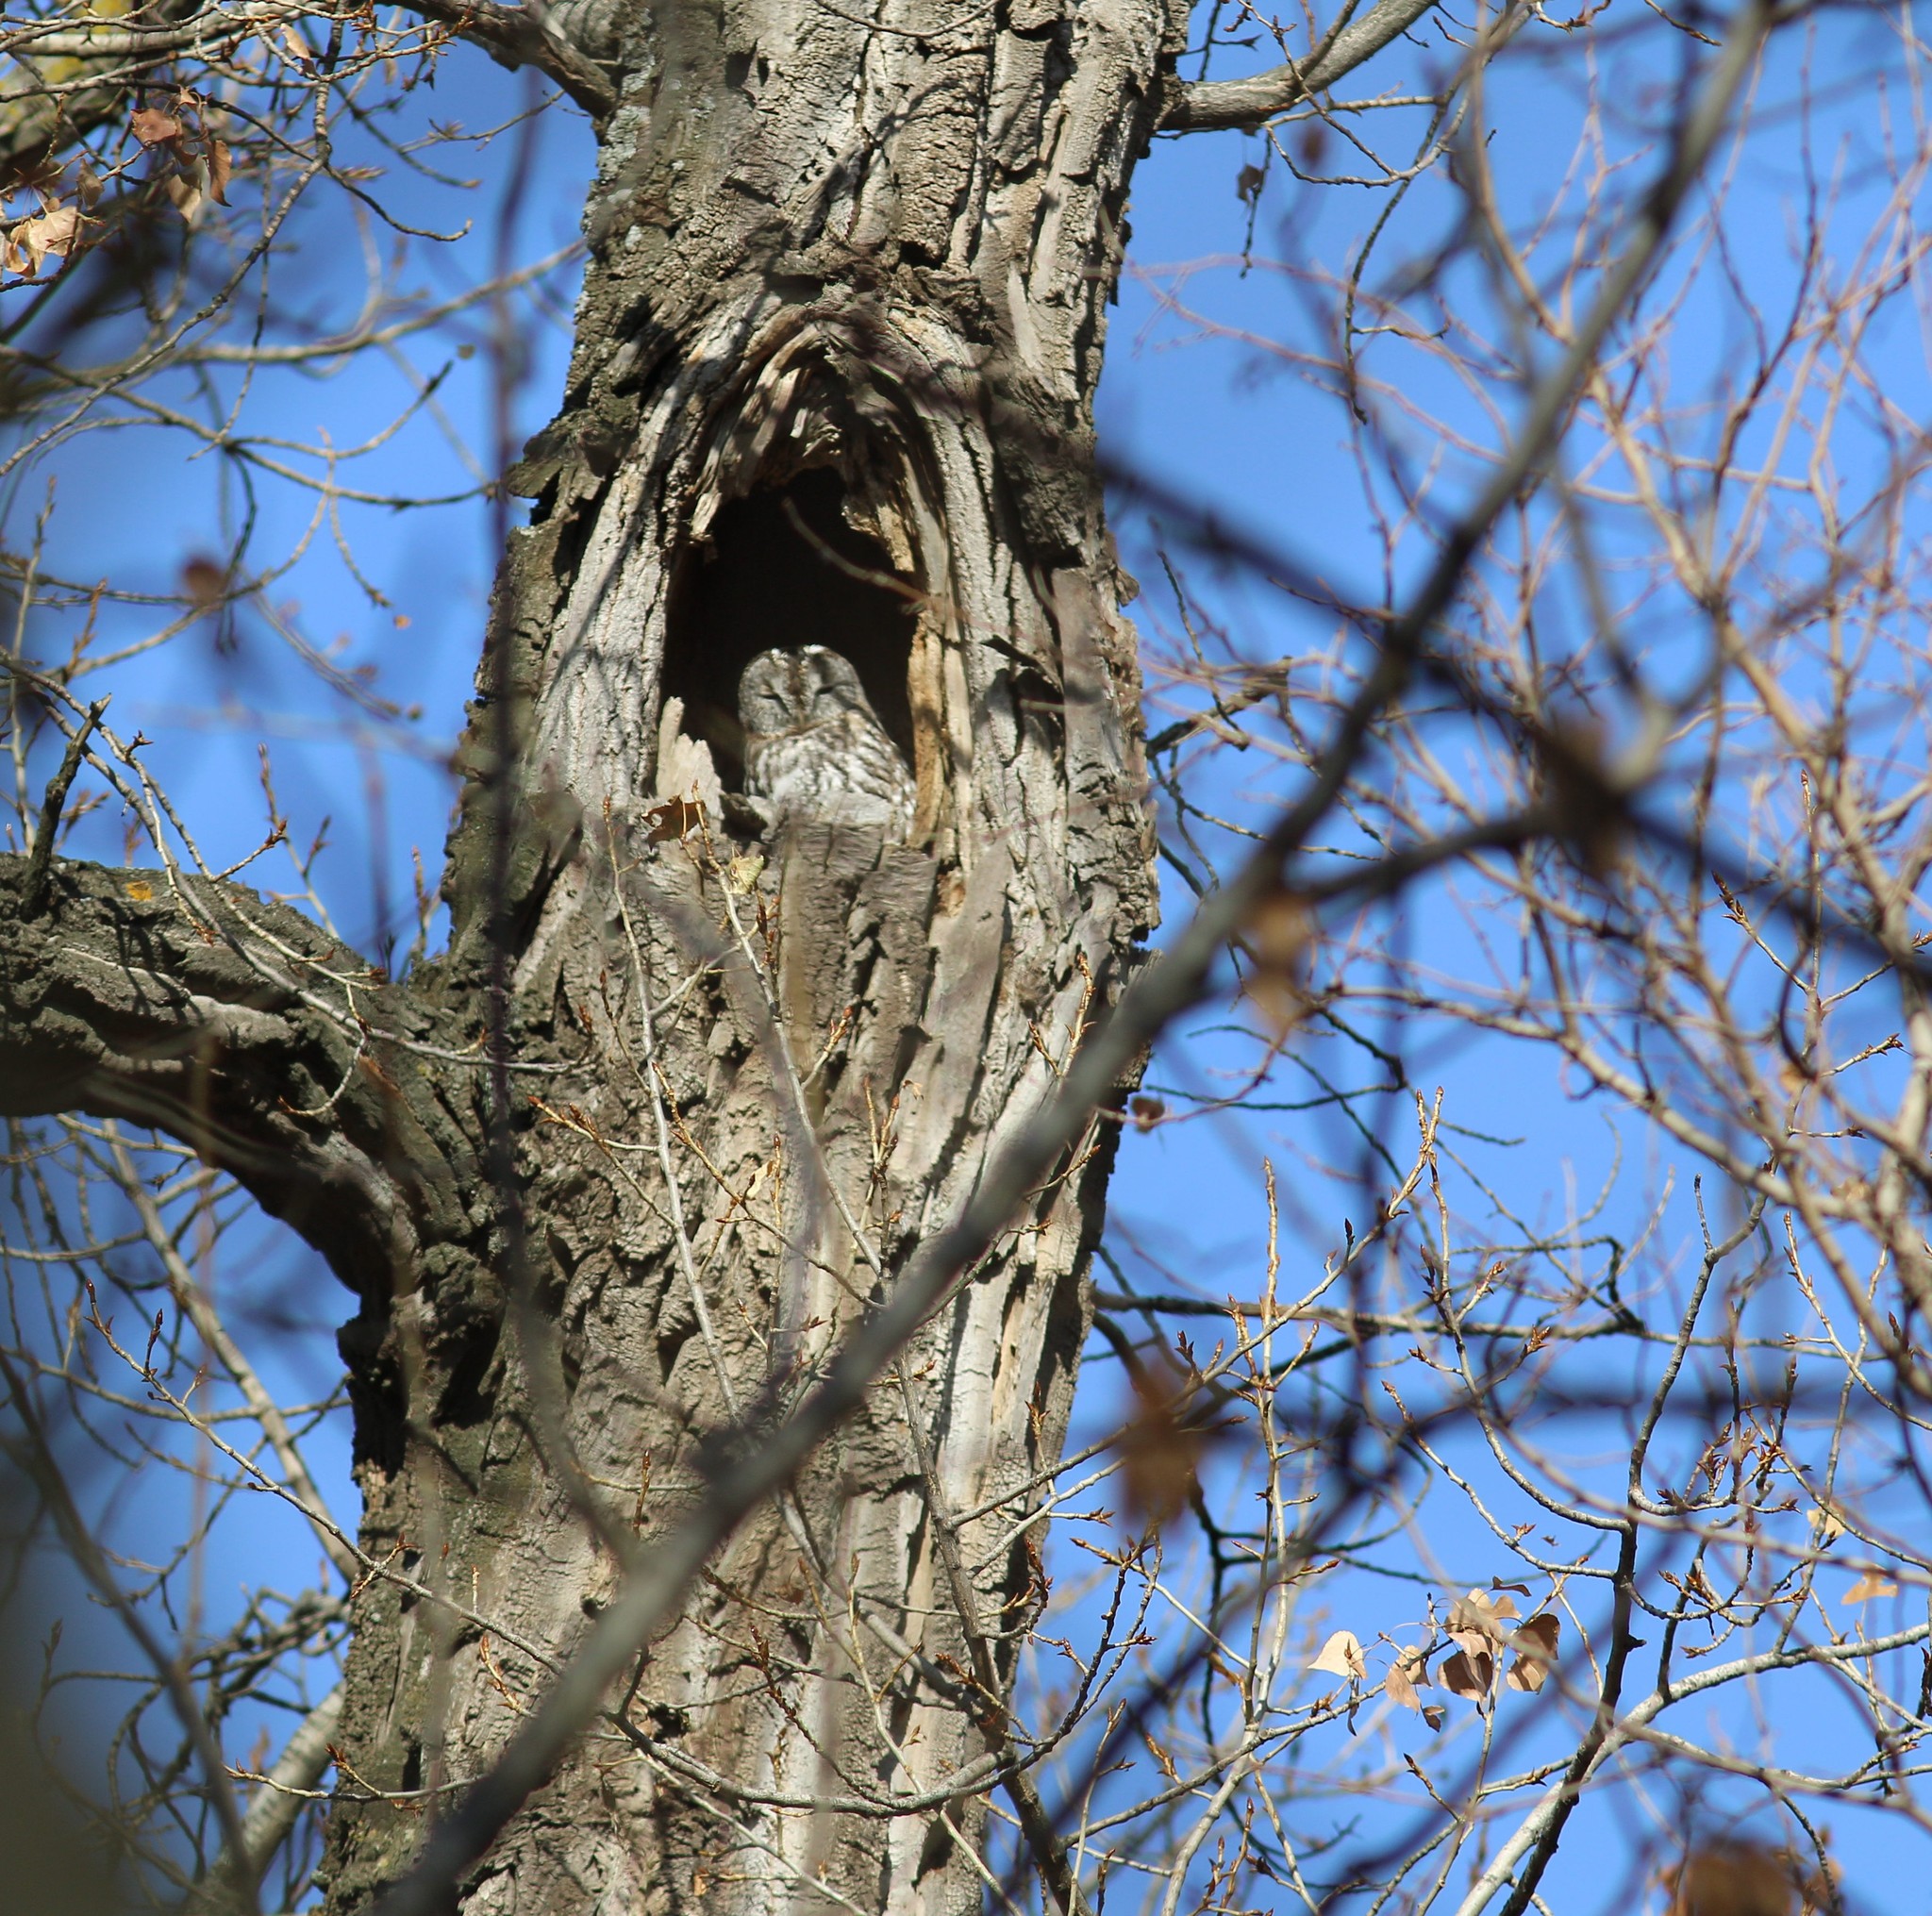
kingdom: Animalia
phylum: Chordata
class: Aves
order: Strigiformes
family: Strigidae
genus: Strix
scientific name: Strix aluco
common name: Tawny owl
